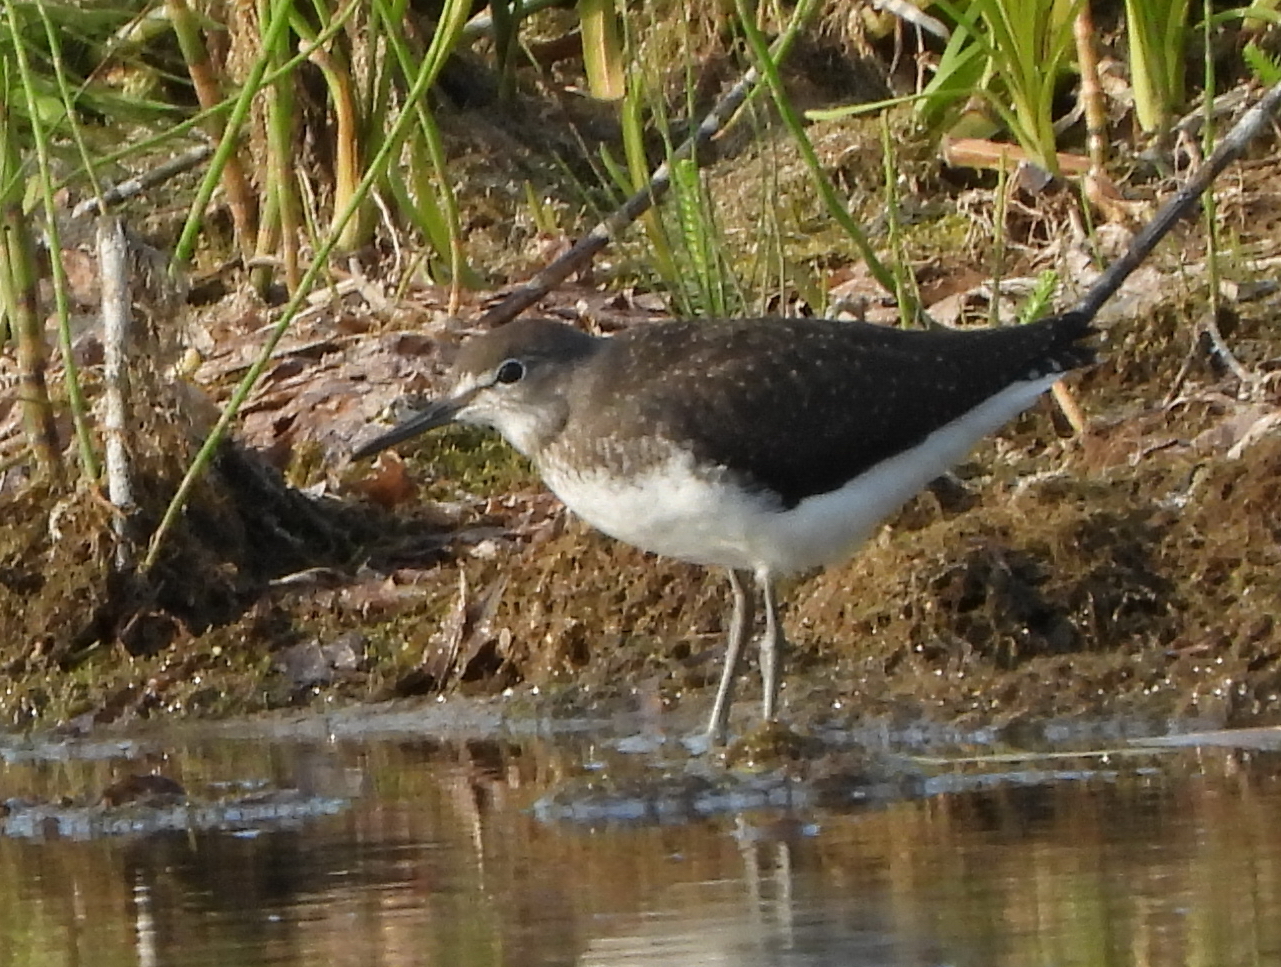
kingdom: Animalia
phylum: Chordata
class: Aves
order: Charadriiformes
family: Scolopacidae
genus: Tringa
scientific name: Tringa ochropus
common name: Green sandpiper
